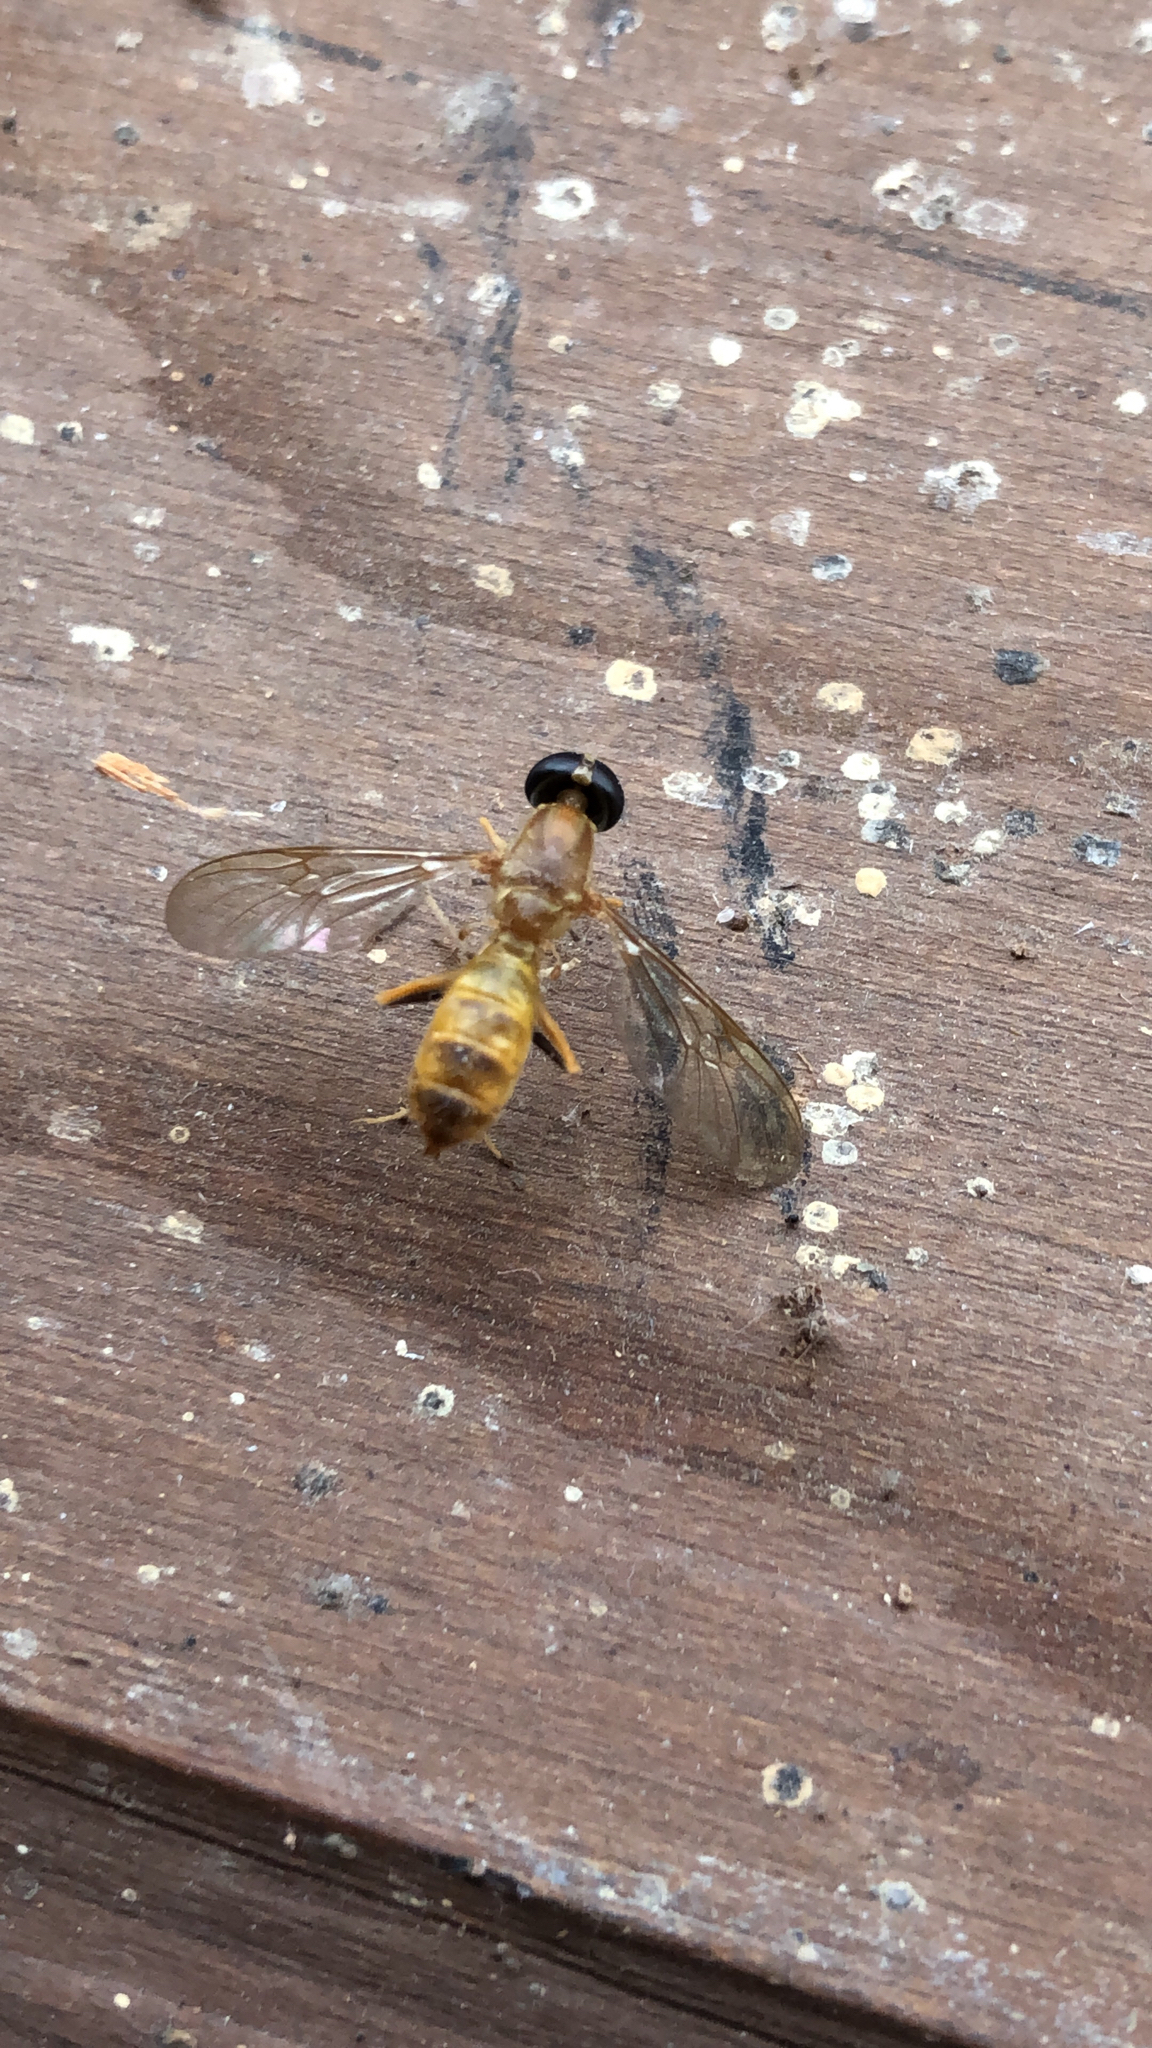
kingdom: Animalia
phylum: Arthropoda
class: Insecta
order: Diptera
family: Stratiomyidae
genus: Ptecticus
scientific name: Ptecticus trivittatus
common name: Compost fly
